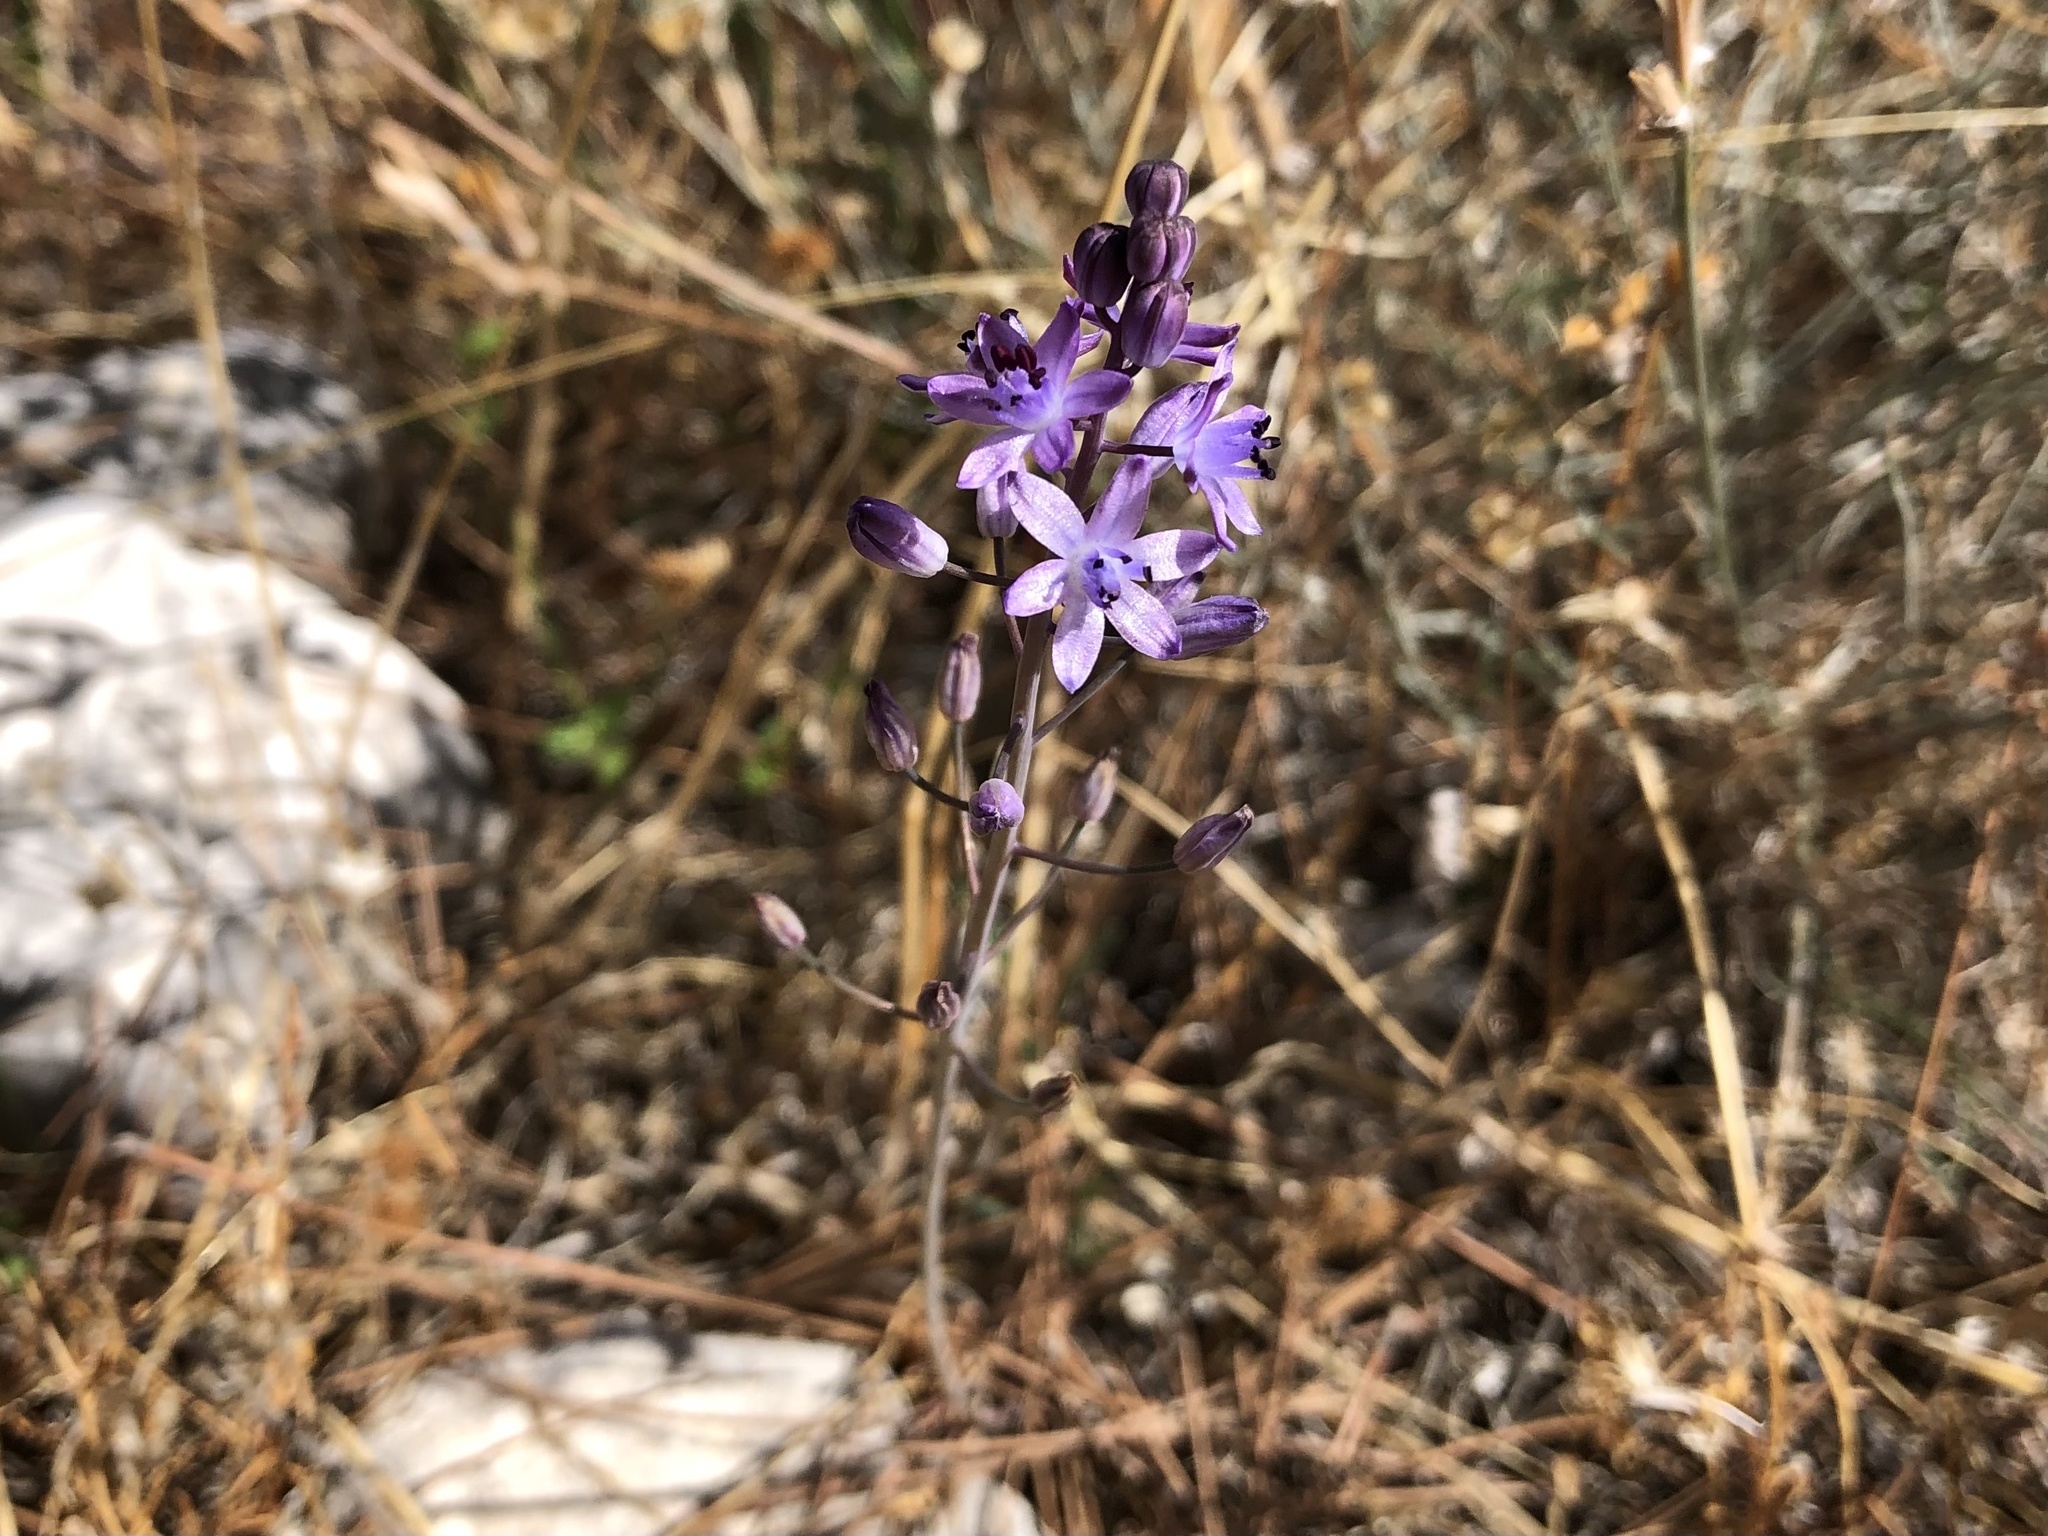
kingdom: Plantae
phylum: Tracheophyta
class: Liliopsida
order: Asparagales
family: Asparagaceae
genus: Prospero
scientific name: Prospero autumnale
